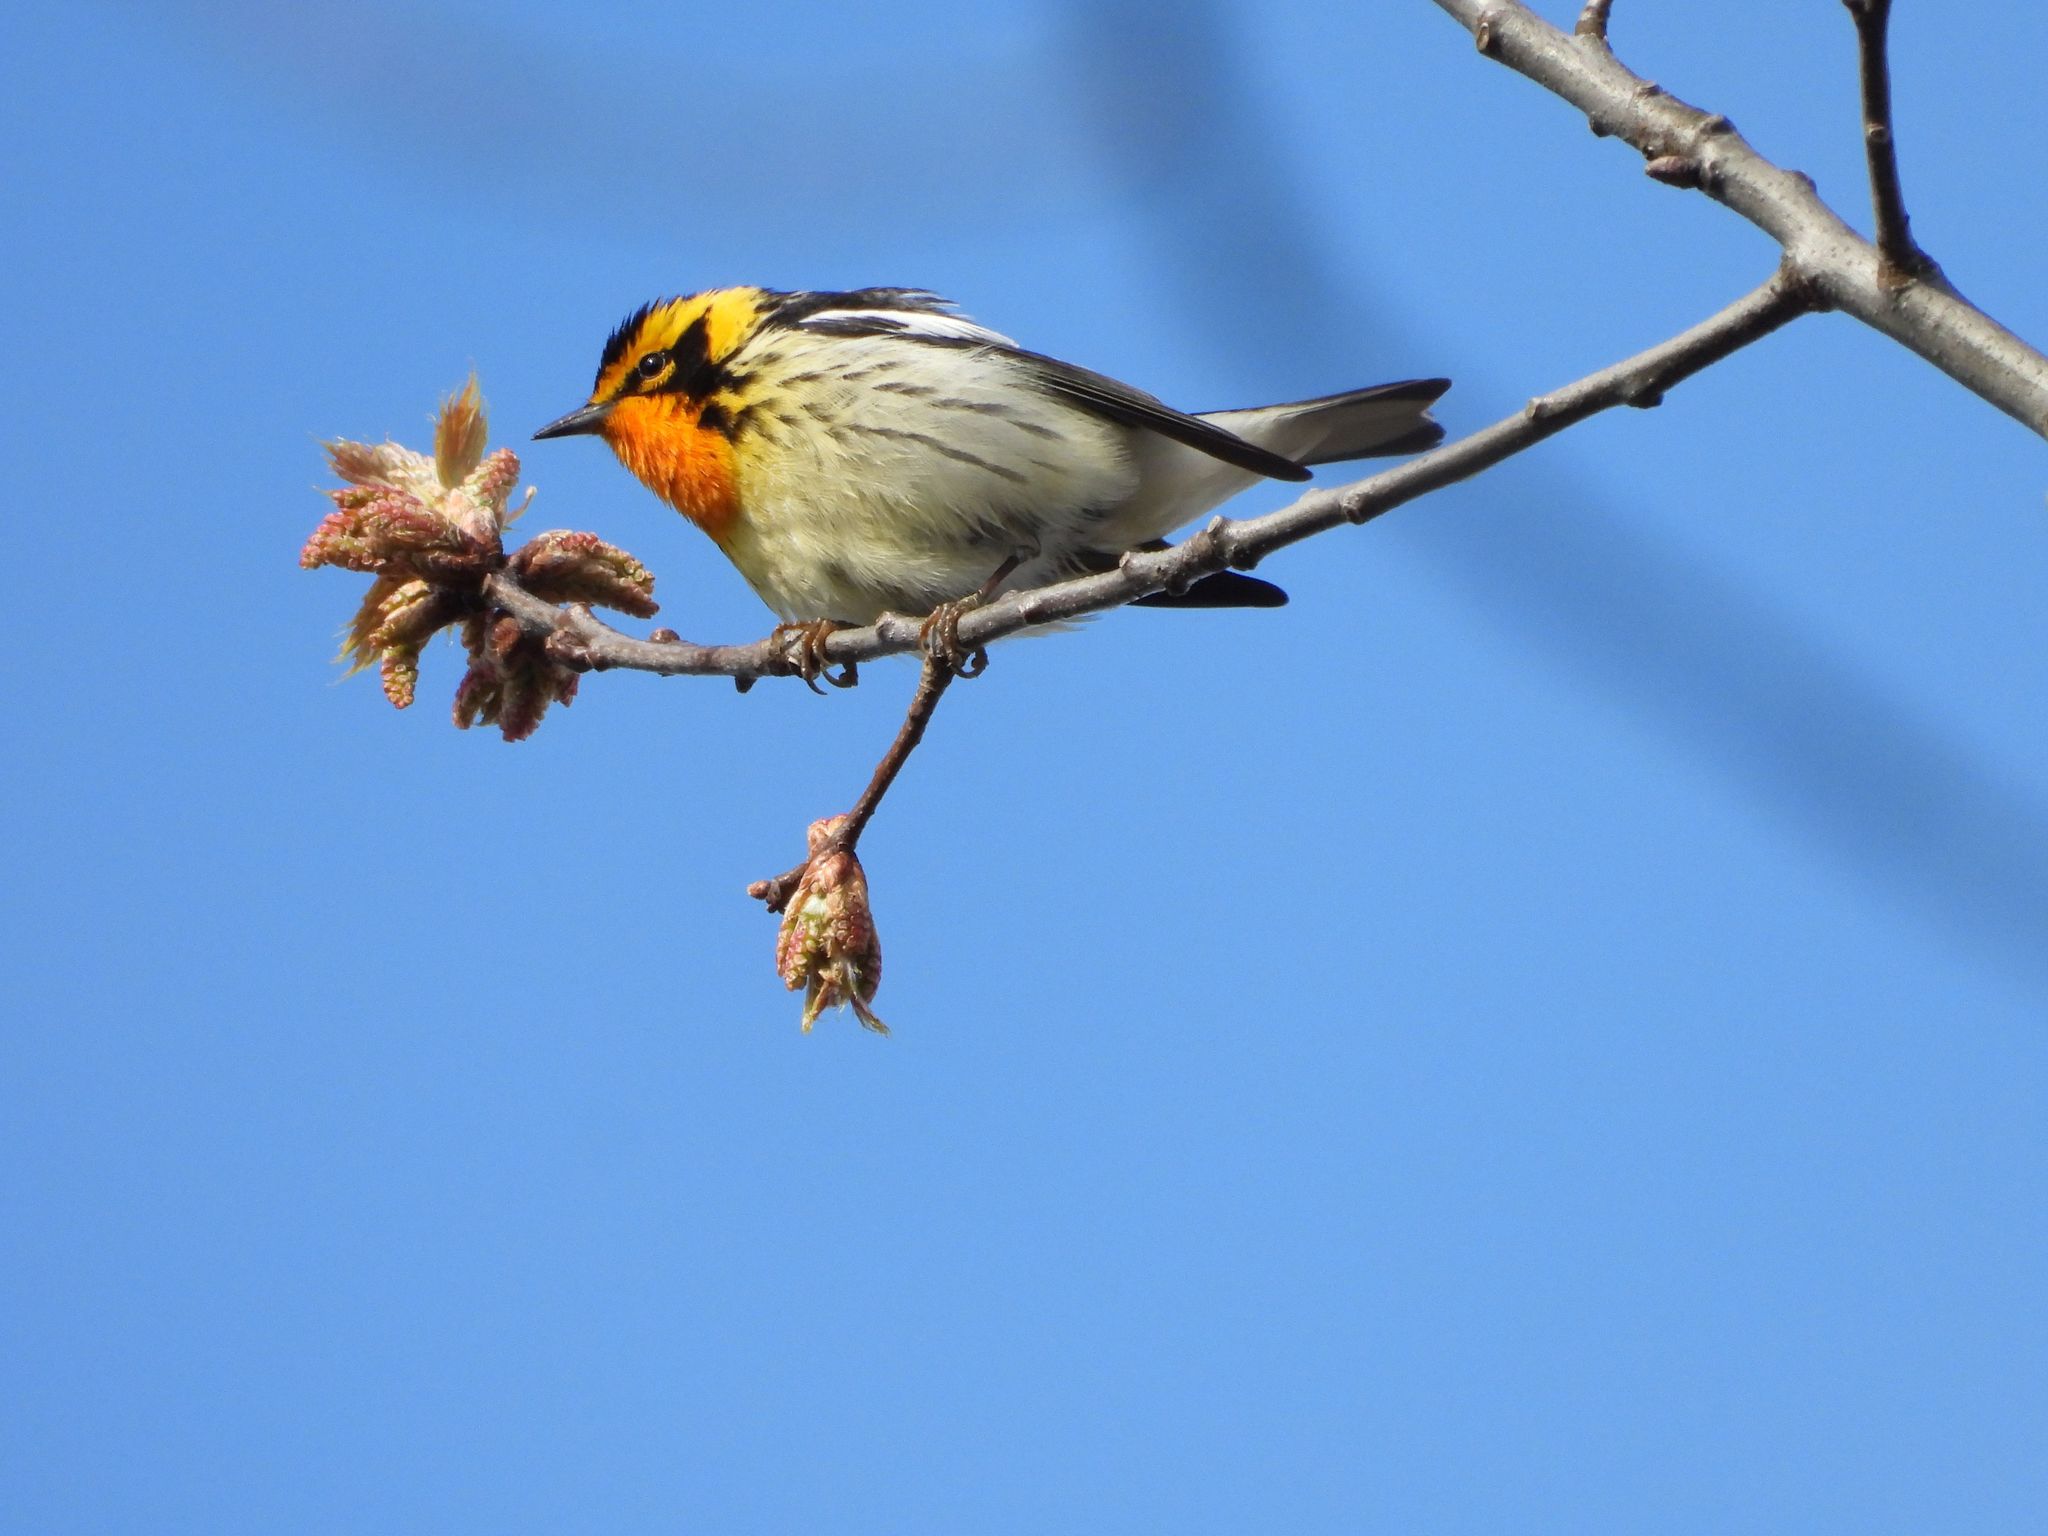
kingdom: Animalia
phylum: Chordata
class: Aves
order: Passeriformes
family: Parulidae
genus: Setophaga
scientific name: Setophaga fusca
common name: Blackburnian warbler
